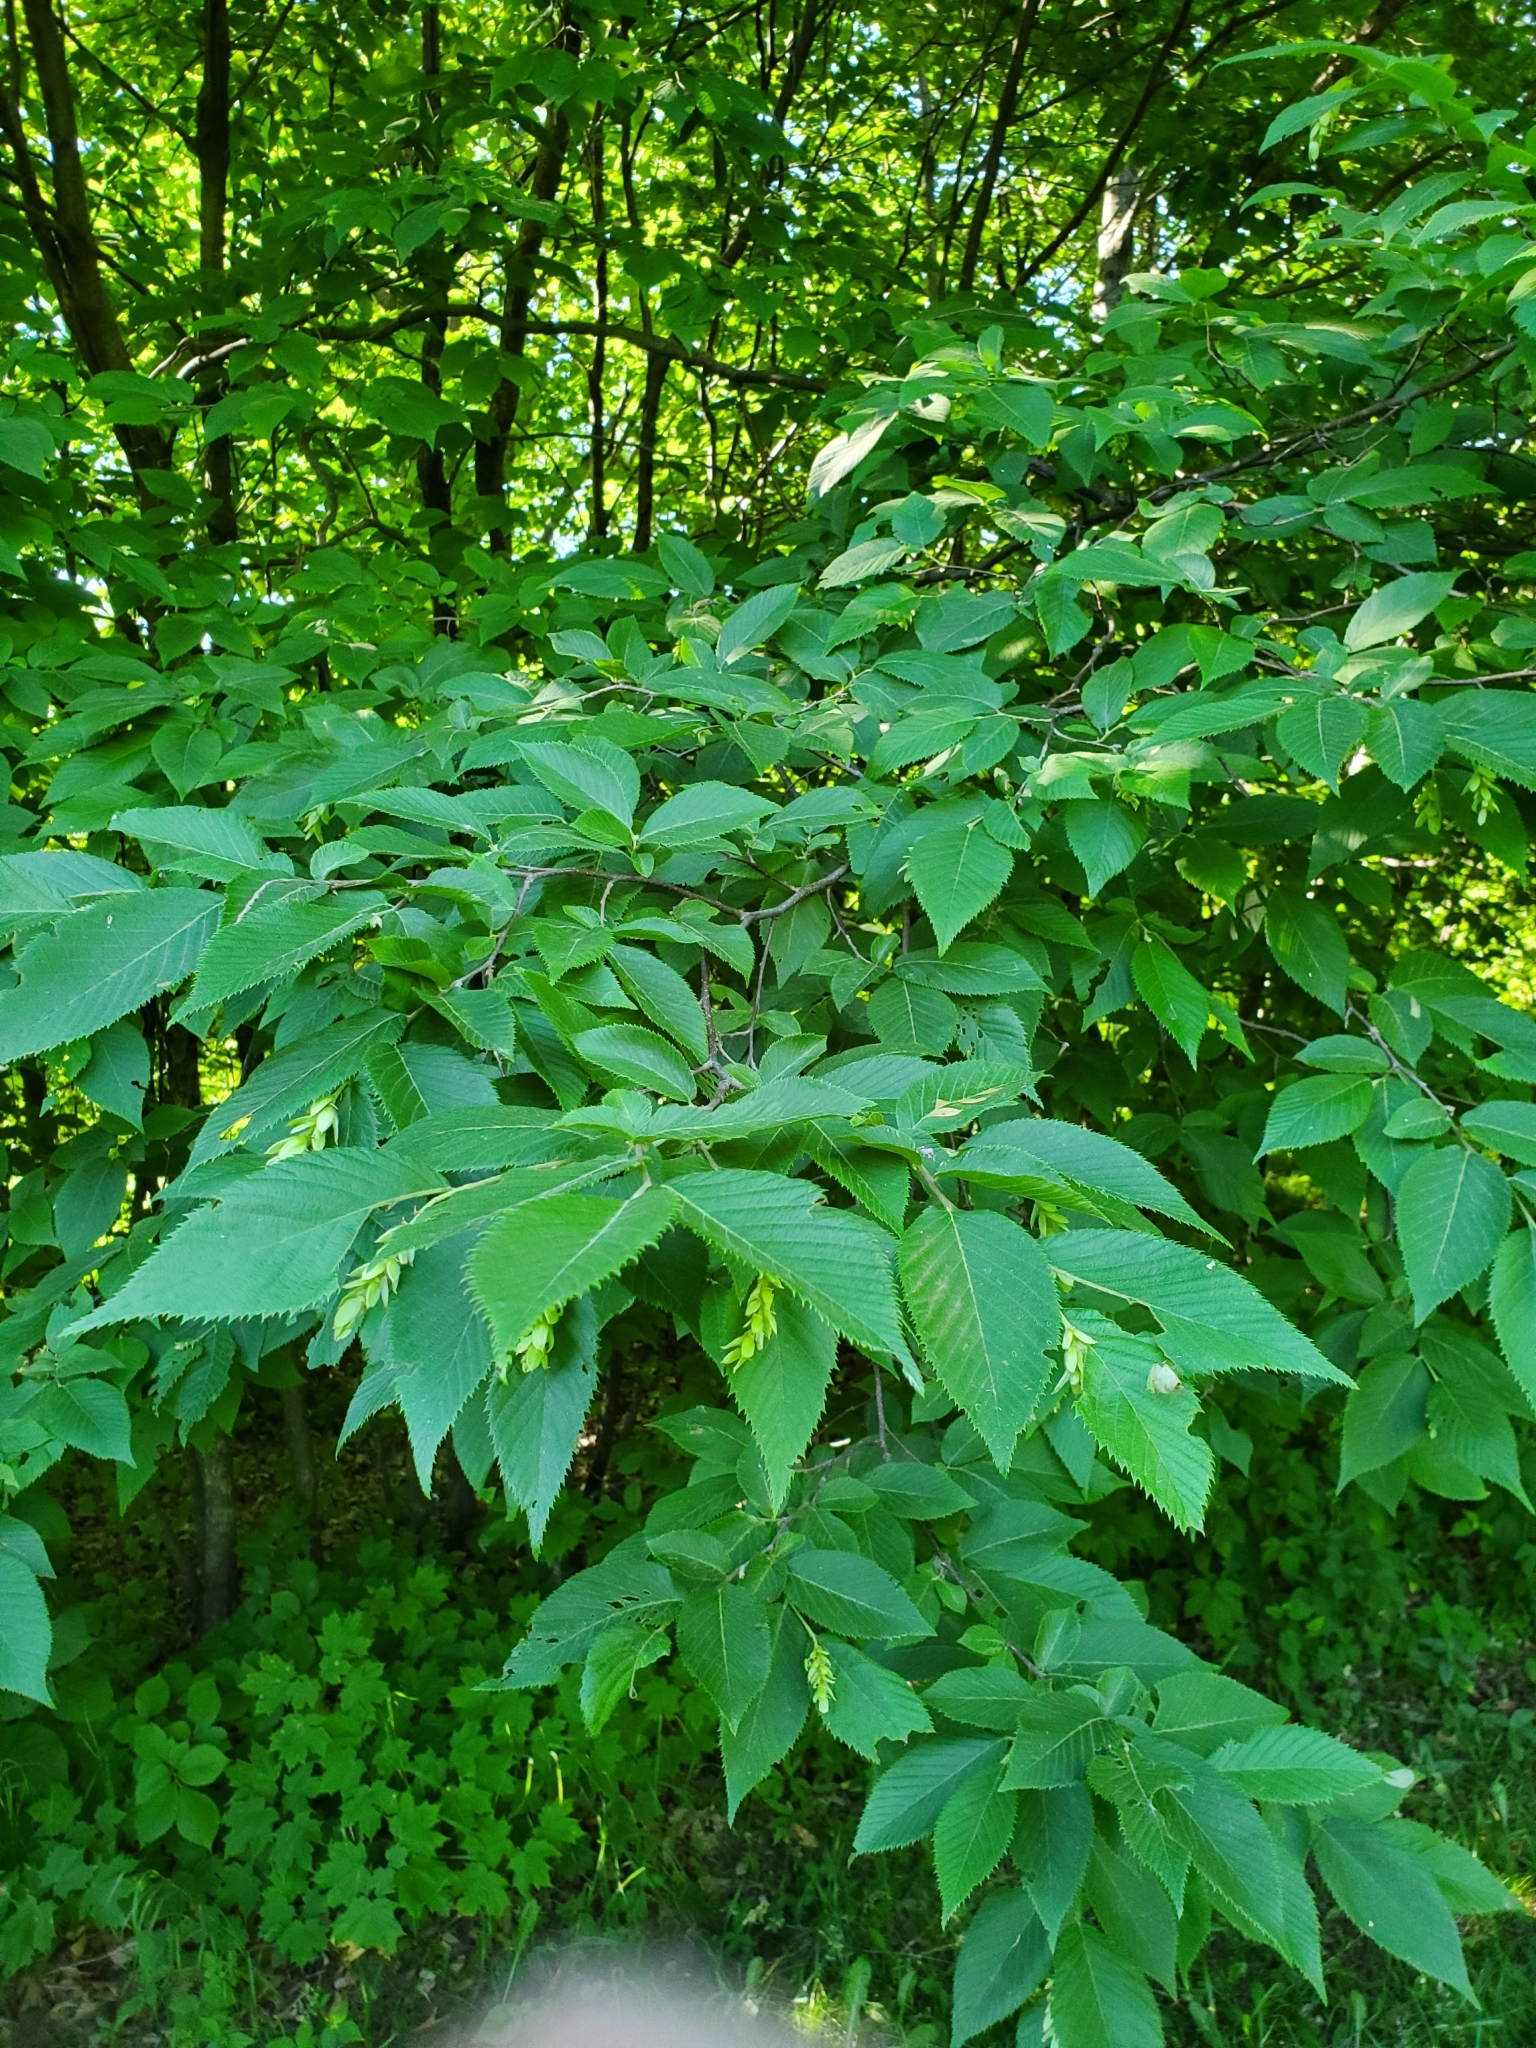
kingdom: Plantae
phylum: Tracheophyta
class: Magnoliopsida
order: Fagales
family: Betulaceae
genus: Ostrya
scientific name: Ostrya virginiana
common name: Ironwood
